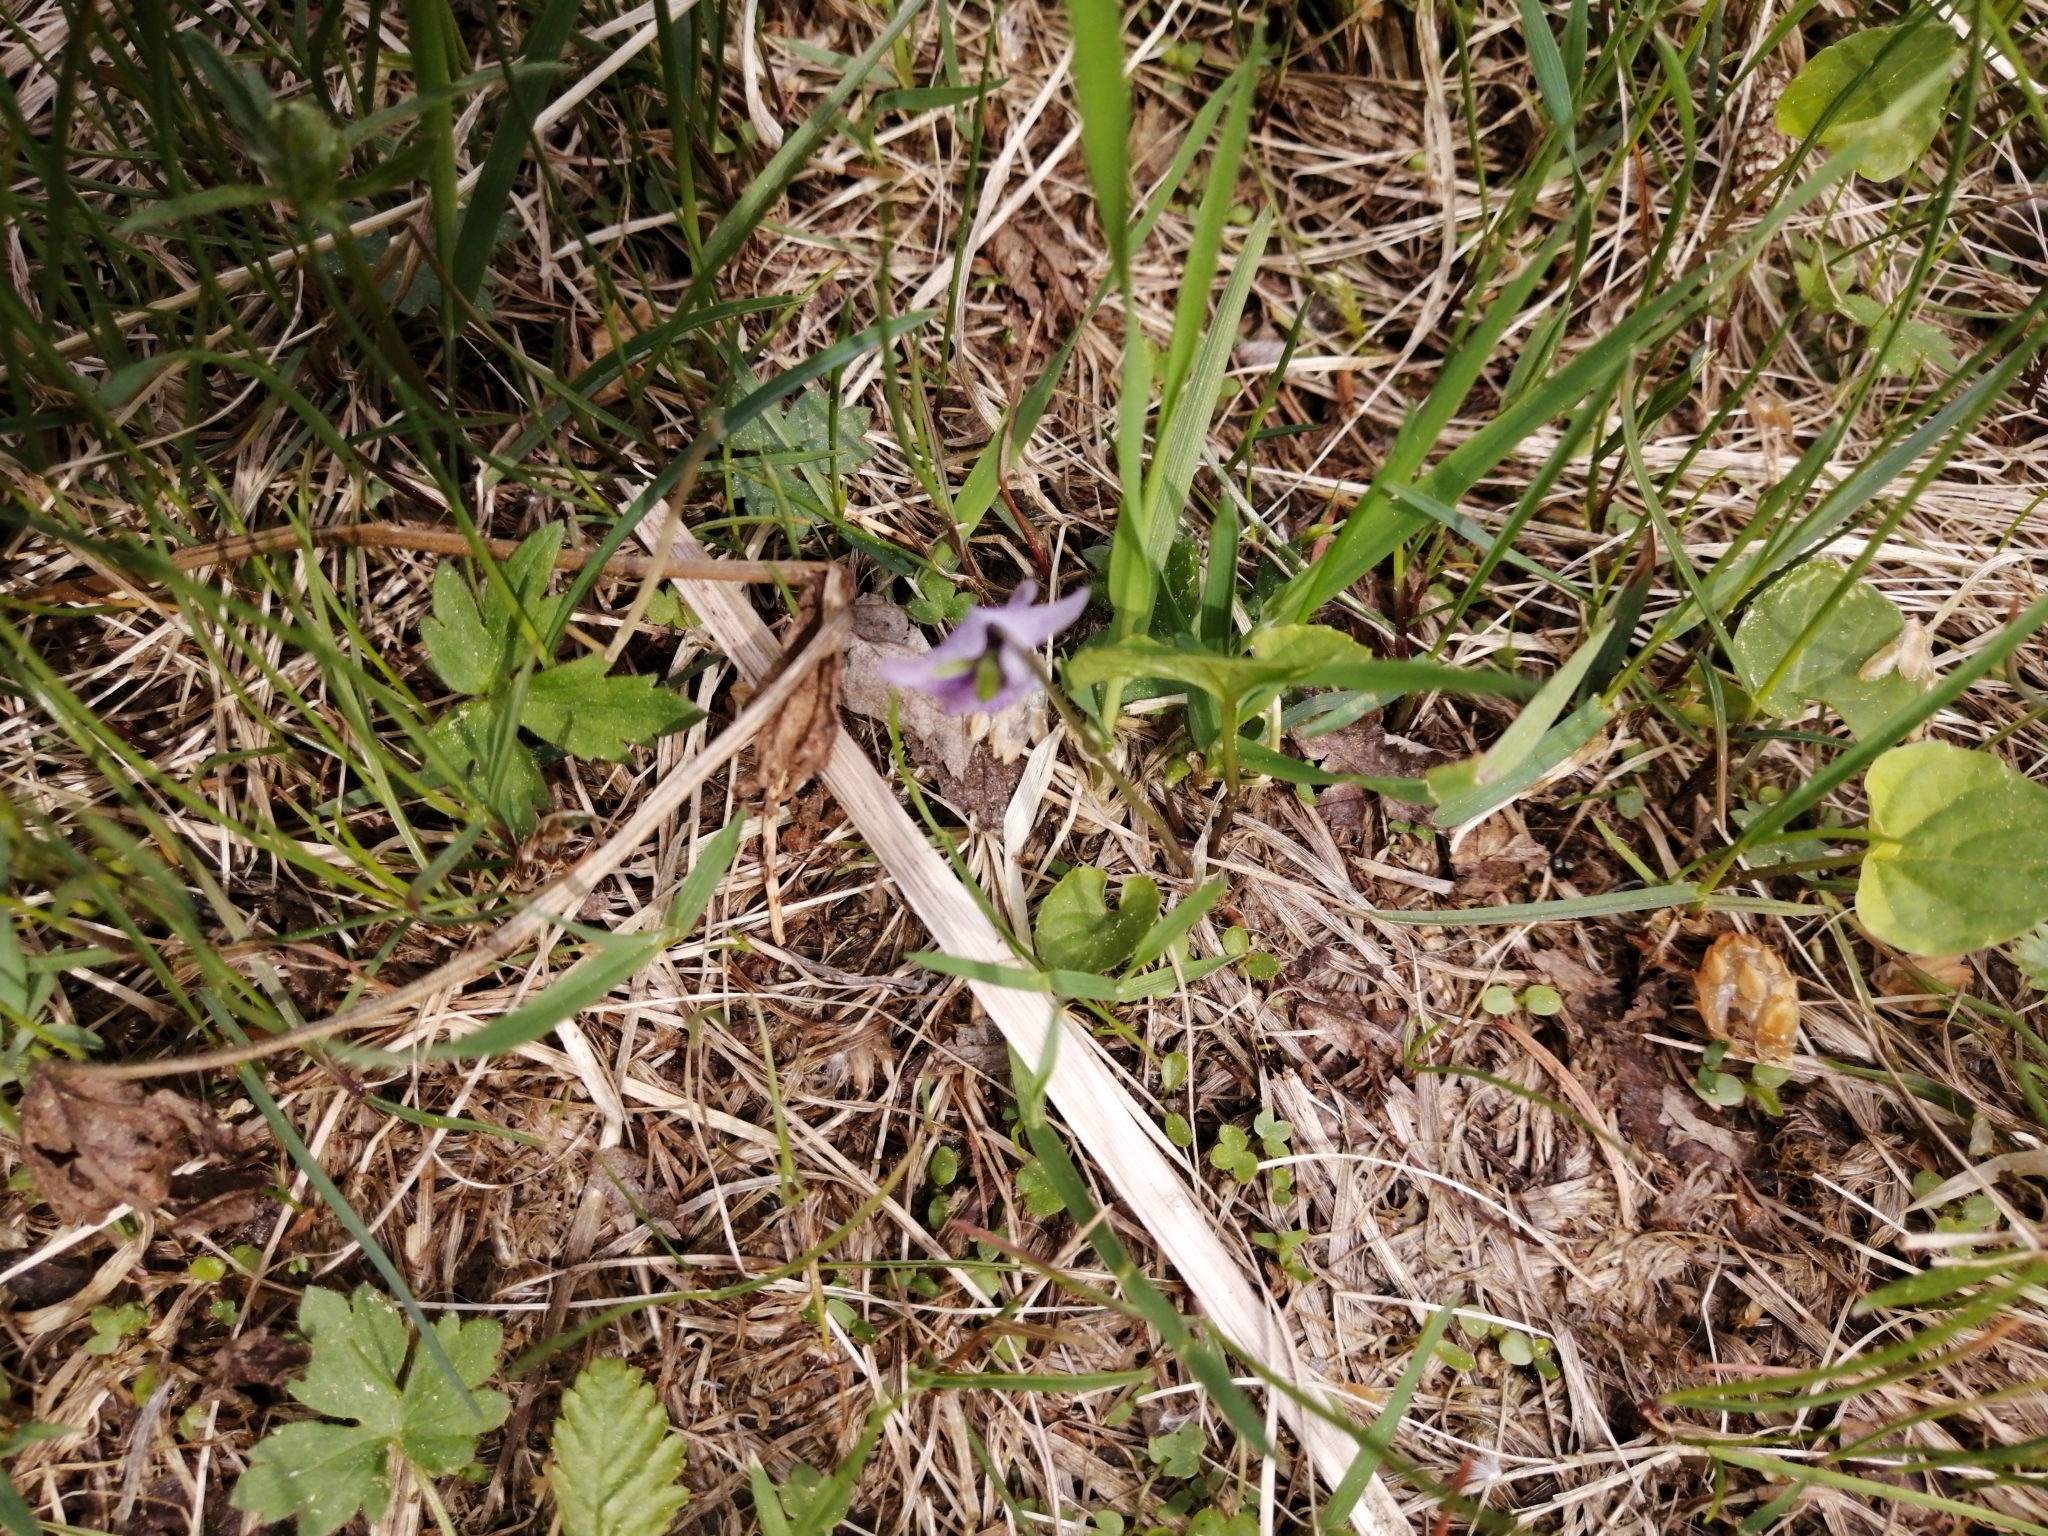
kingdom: Plantae
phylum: Tracheophyta
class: Magnoliopsida
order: Malpighiales
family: Violaceae
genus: Viola
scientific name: Viola epipsila
